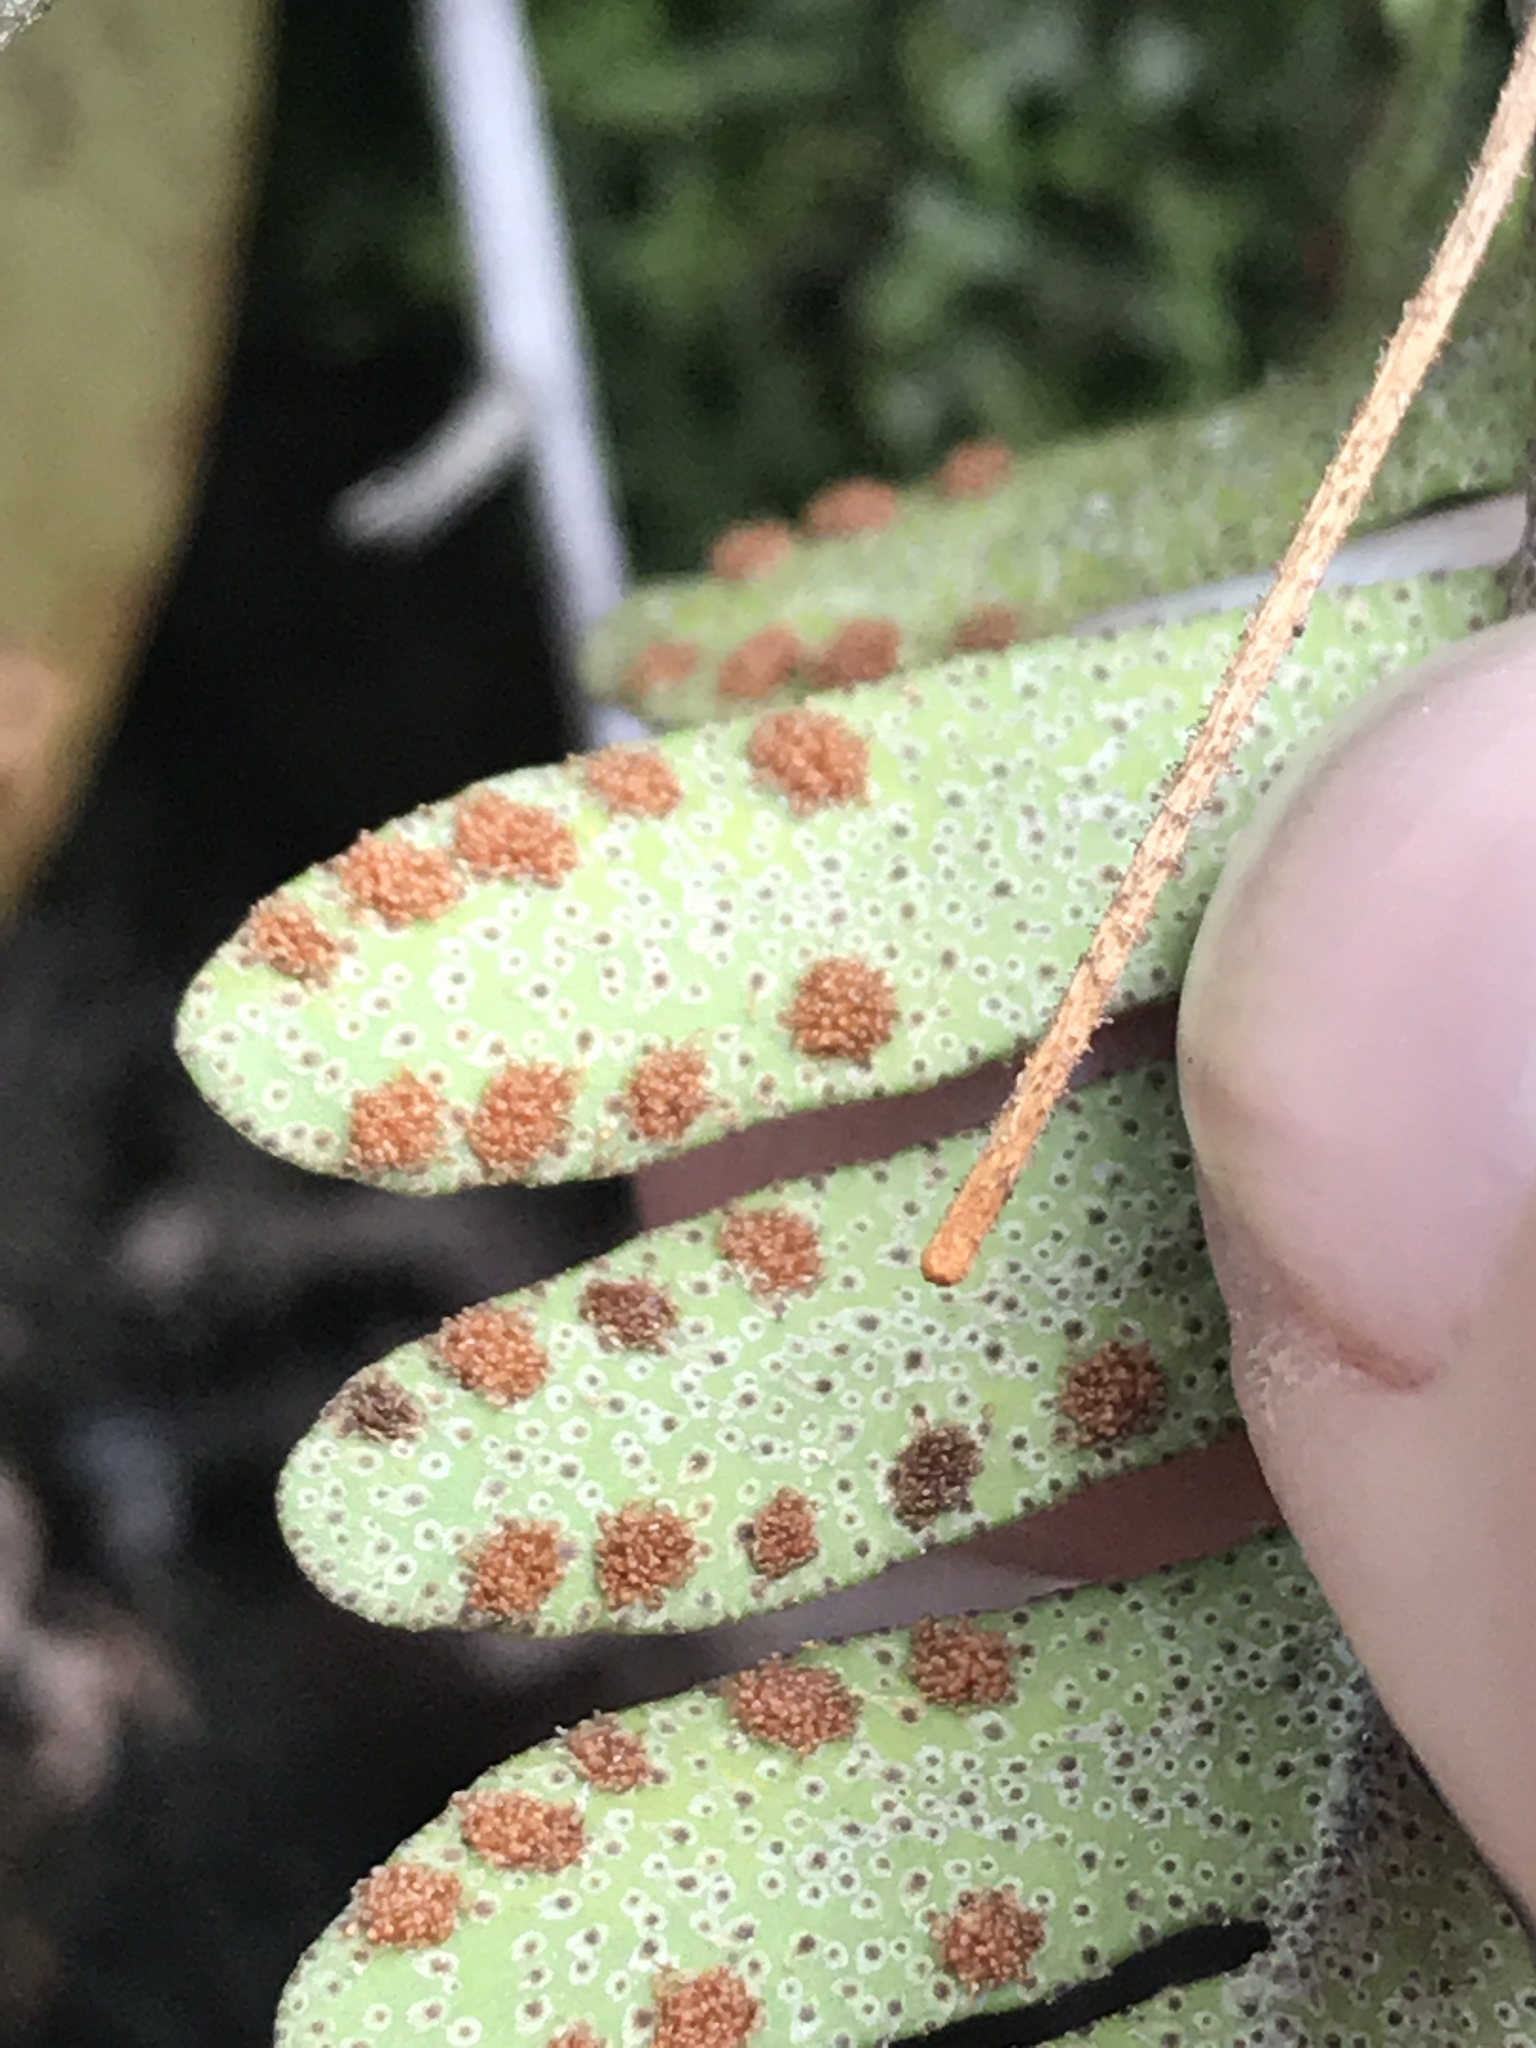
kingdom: Plantae
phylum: Tracheophyta
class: Polypodiopsida
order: Polypodiales
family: Polypodiaceae
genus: Pleopeltis
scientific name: Pleopeltis michauxiana
